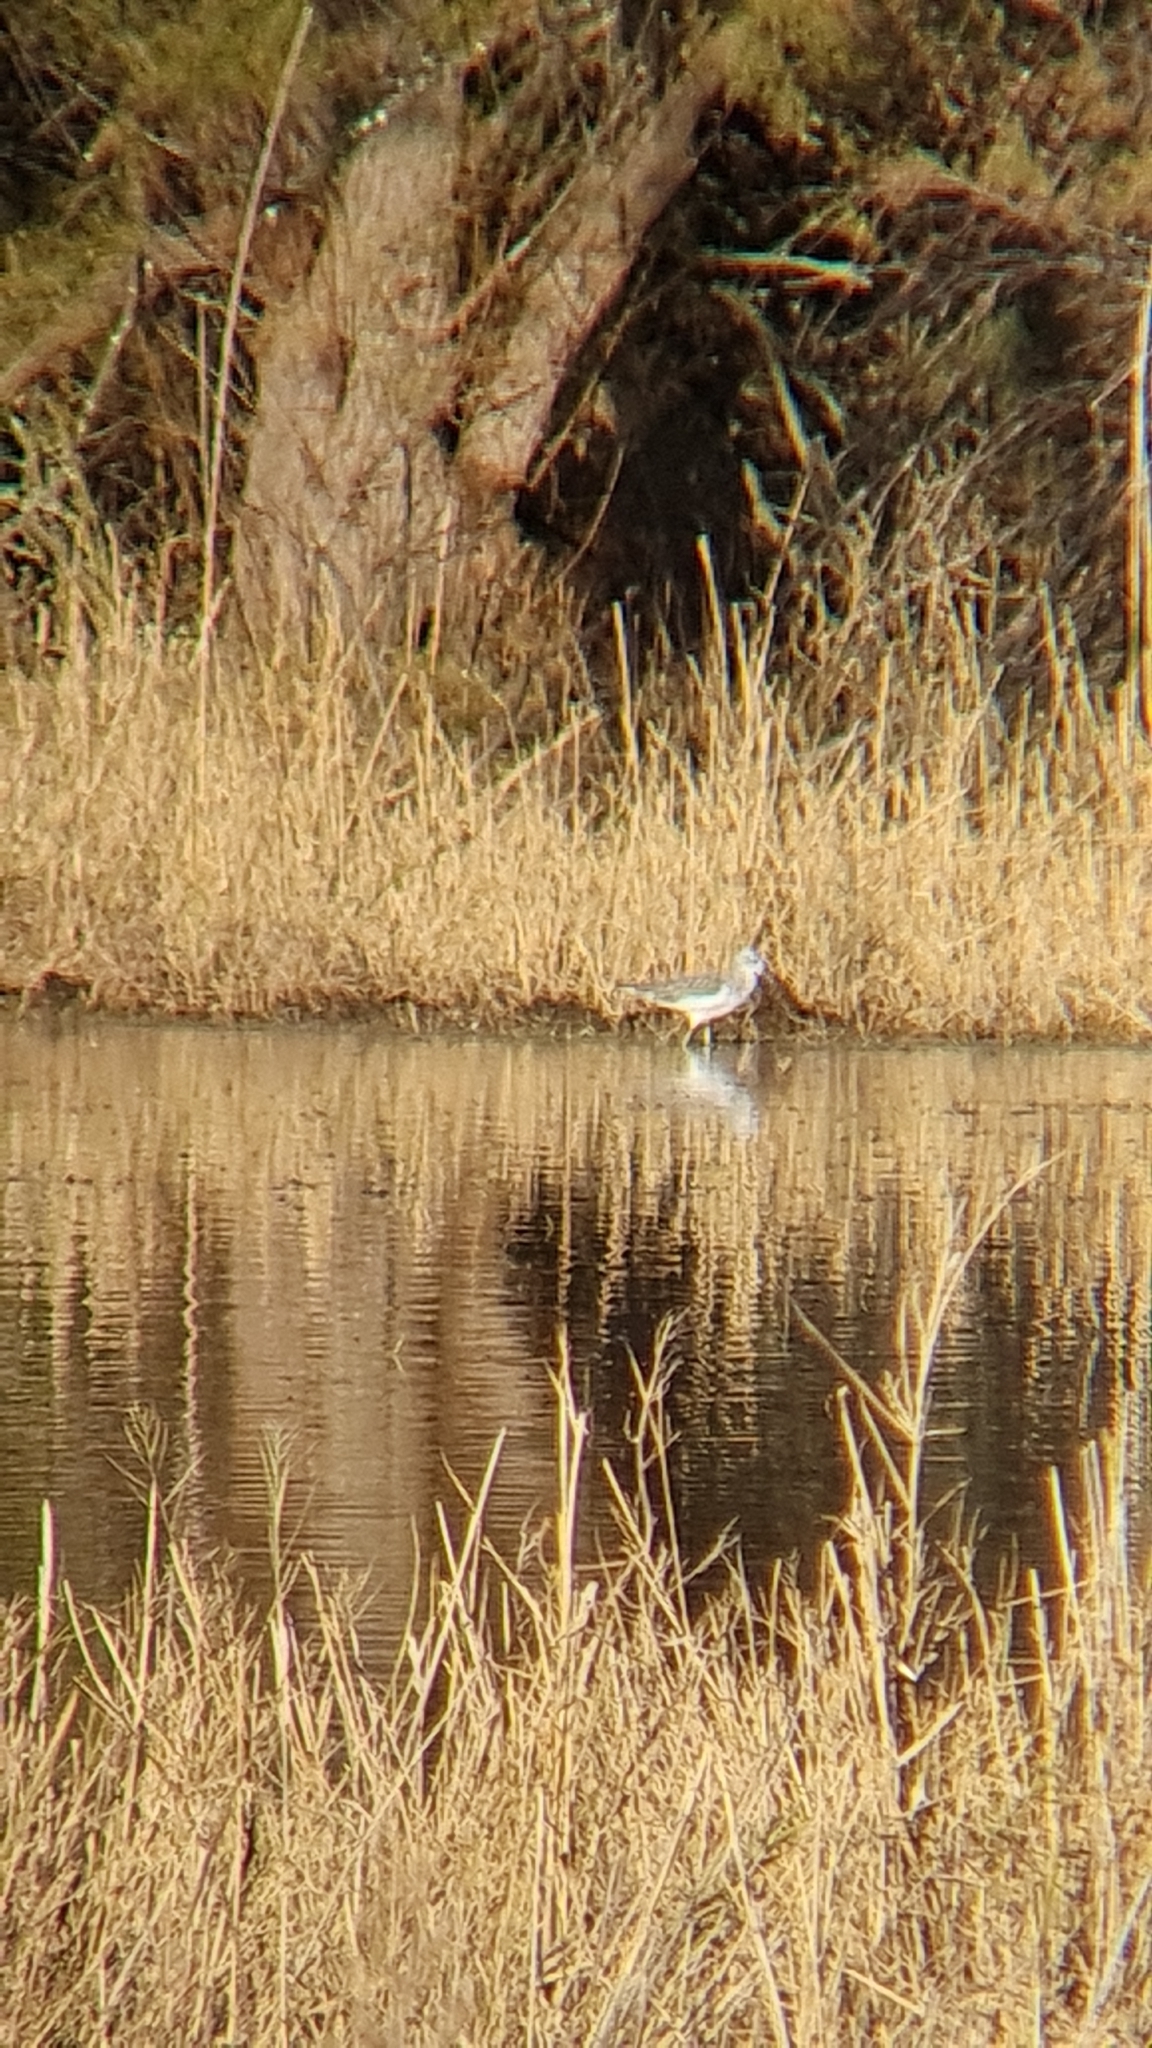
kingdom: Animalia
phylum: Chordata
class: Aves
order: Charadriiformes
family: Scolopacidae
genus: Tringa
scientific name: Tringa nebularia
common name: Common greenshank
